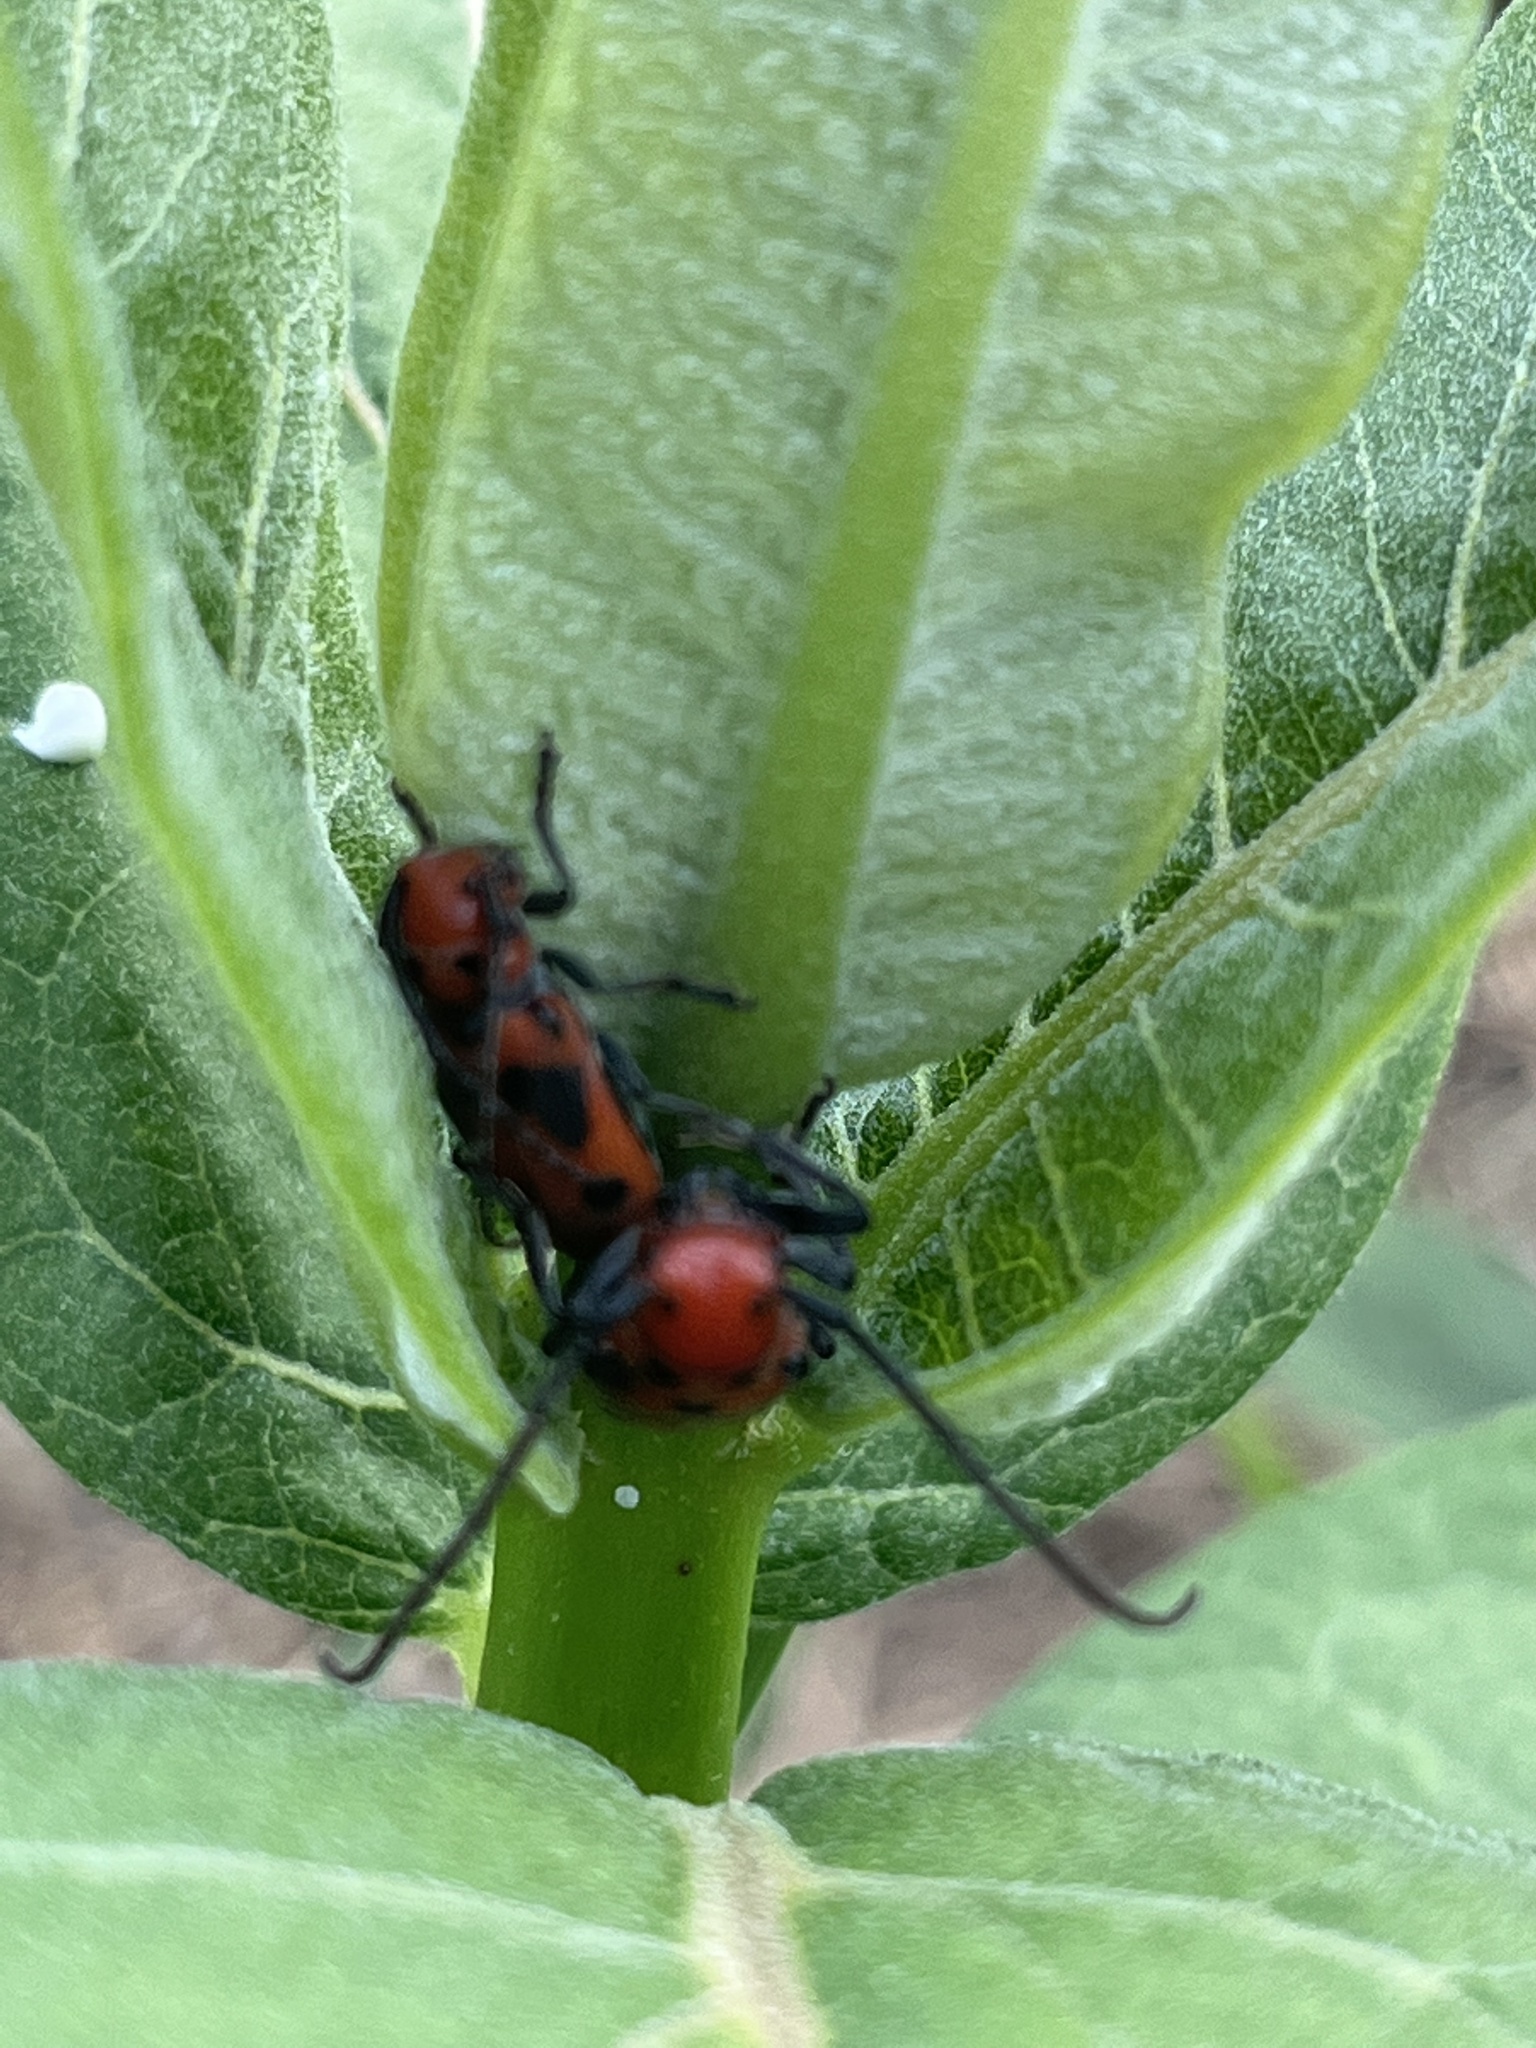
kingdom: Animalia
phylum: Arthropoda
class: Insecta
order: Coleoptera
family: Cerambycidae
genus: Tetraopes
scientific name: Tetraopes tetrophthalmus
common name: Red milkweed beetle
